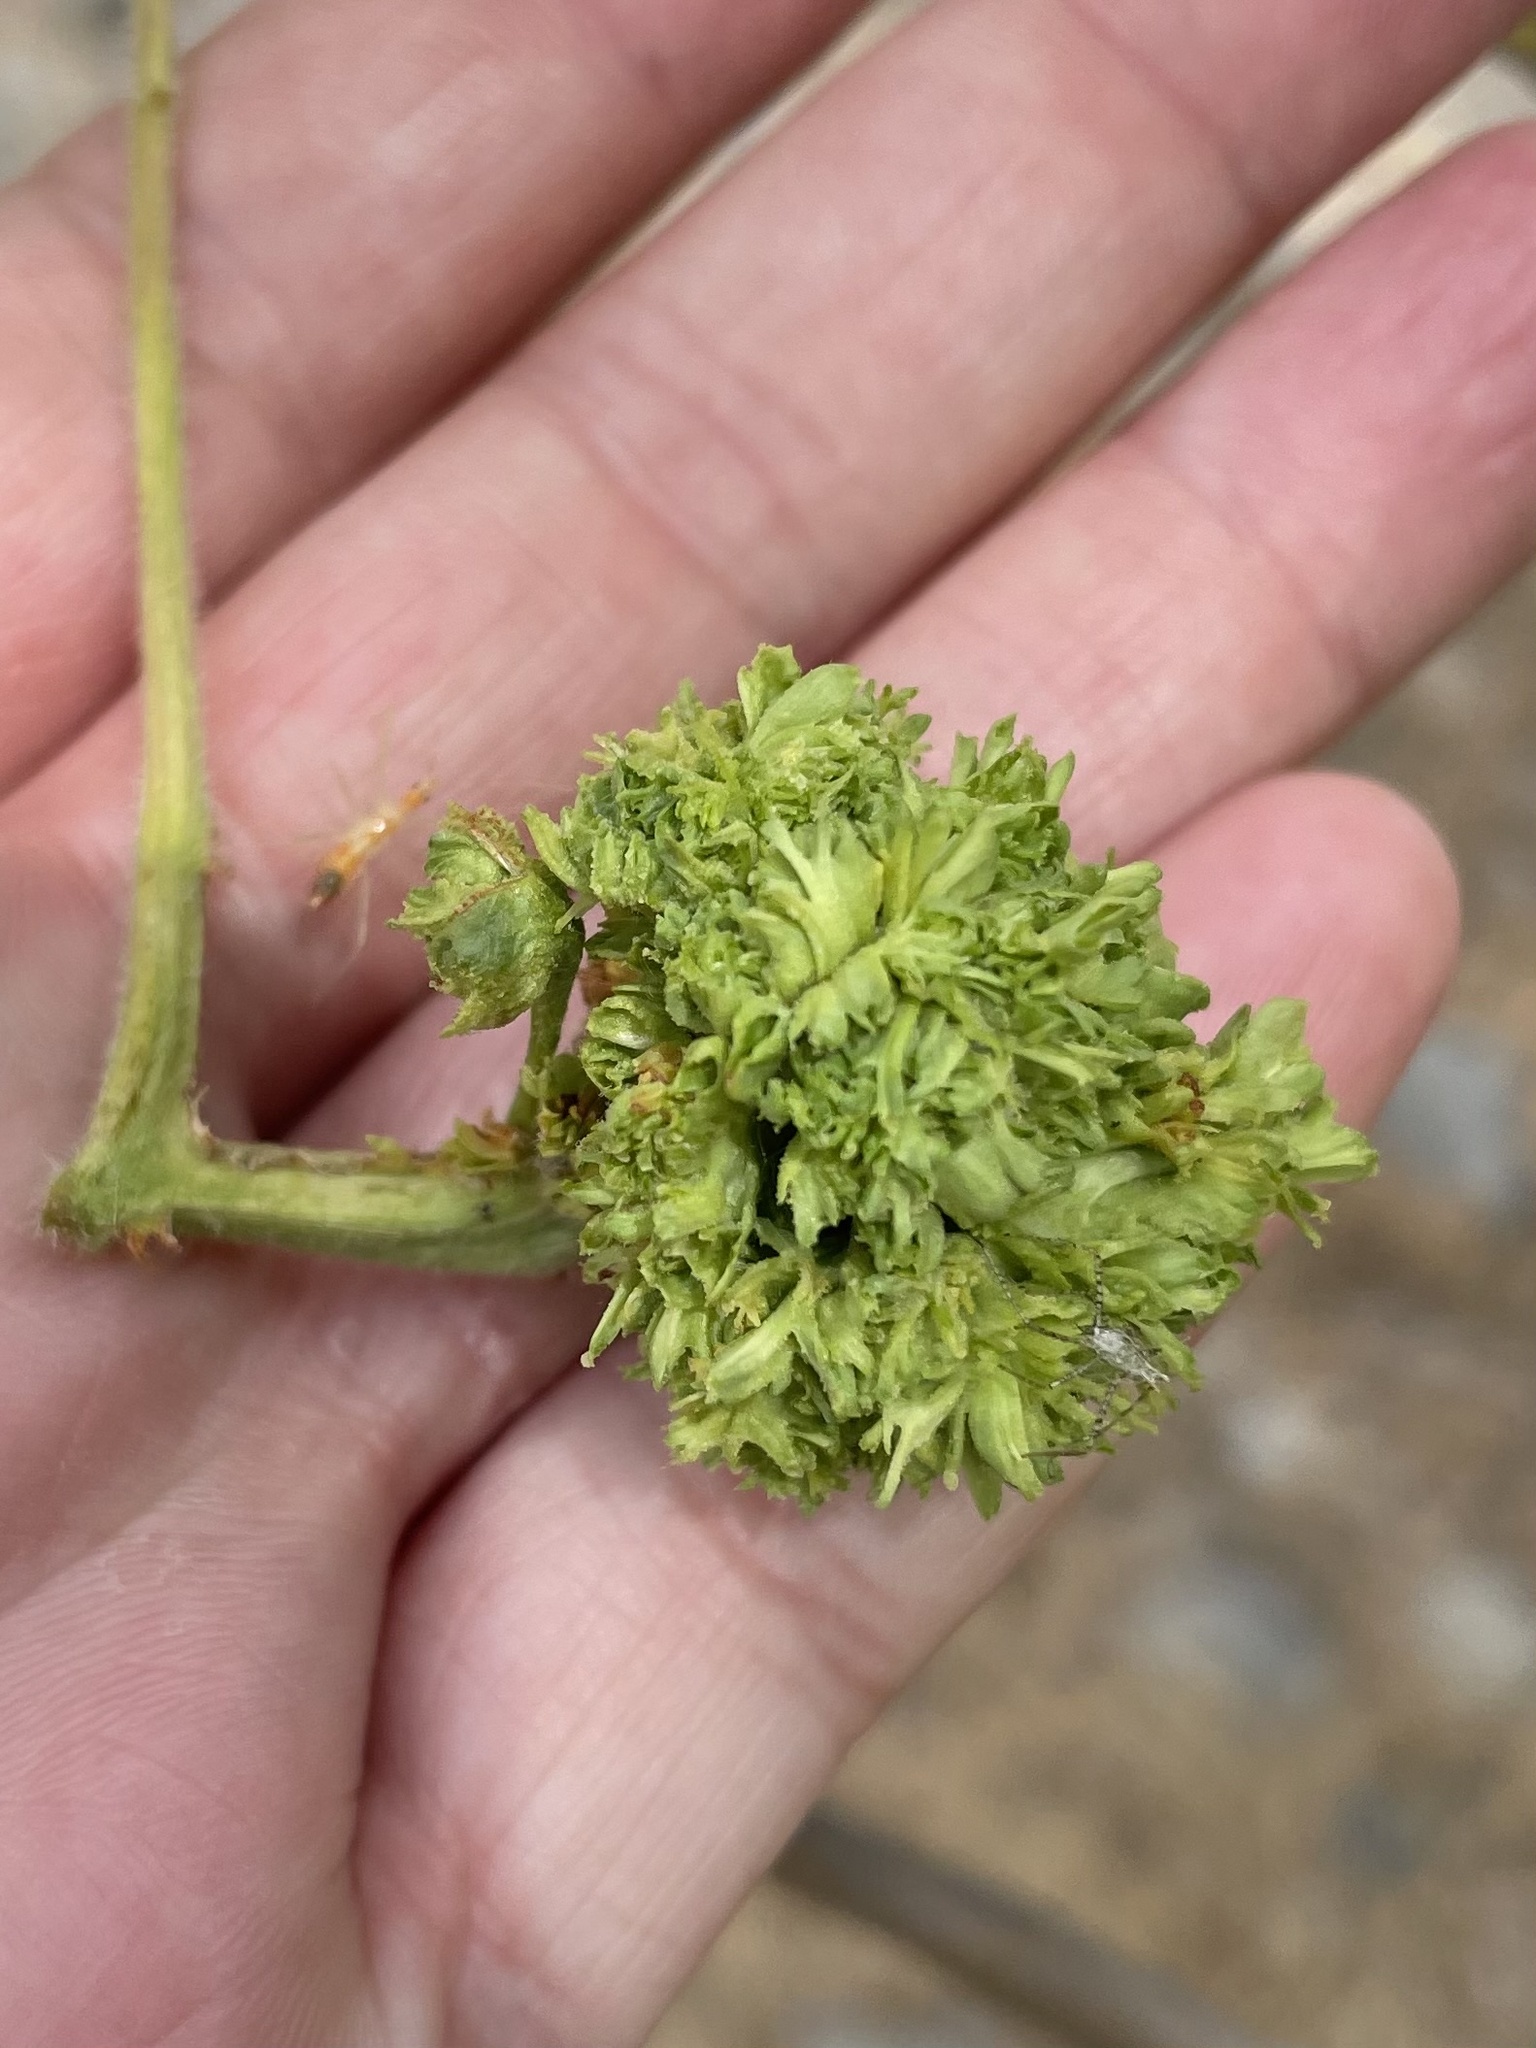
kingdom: Animalia
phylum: Arthropoda
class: Arachnida
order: Trombidiformes
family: Eriophyidae
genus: Aceria
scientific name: Aceria fraxiniflora
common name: Ash flower gall mite
